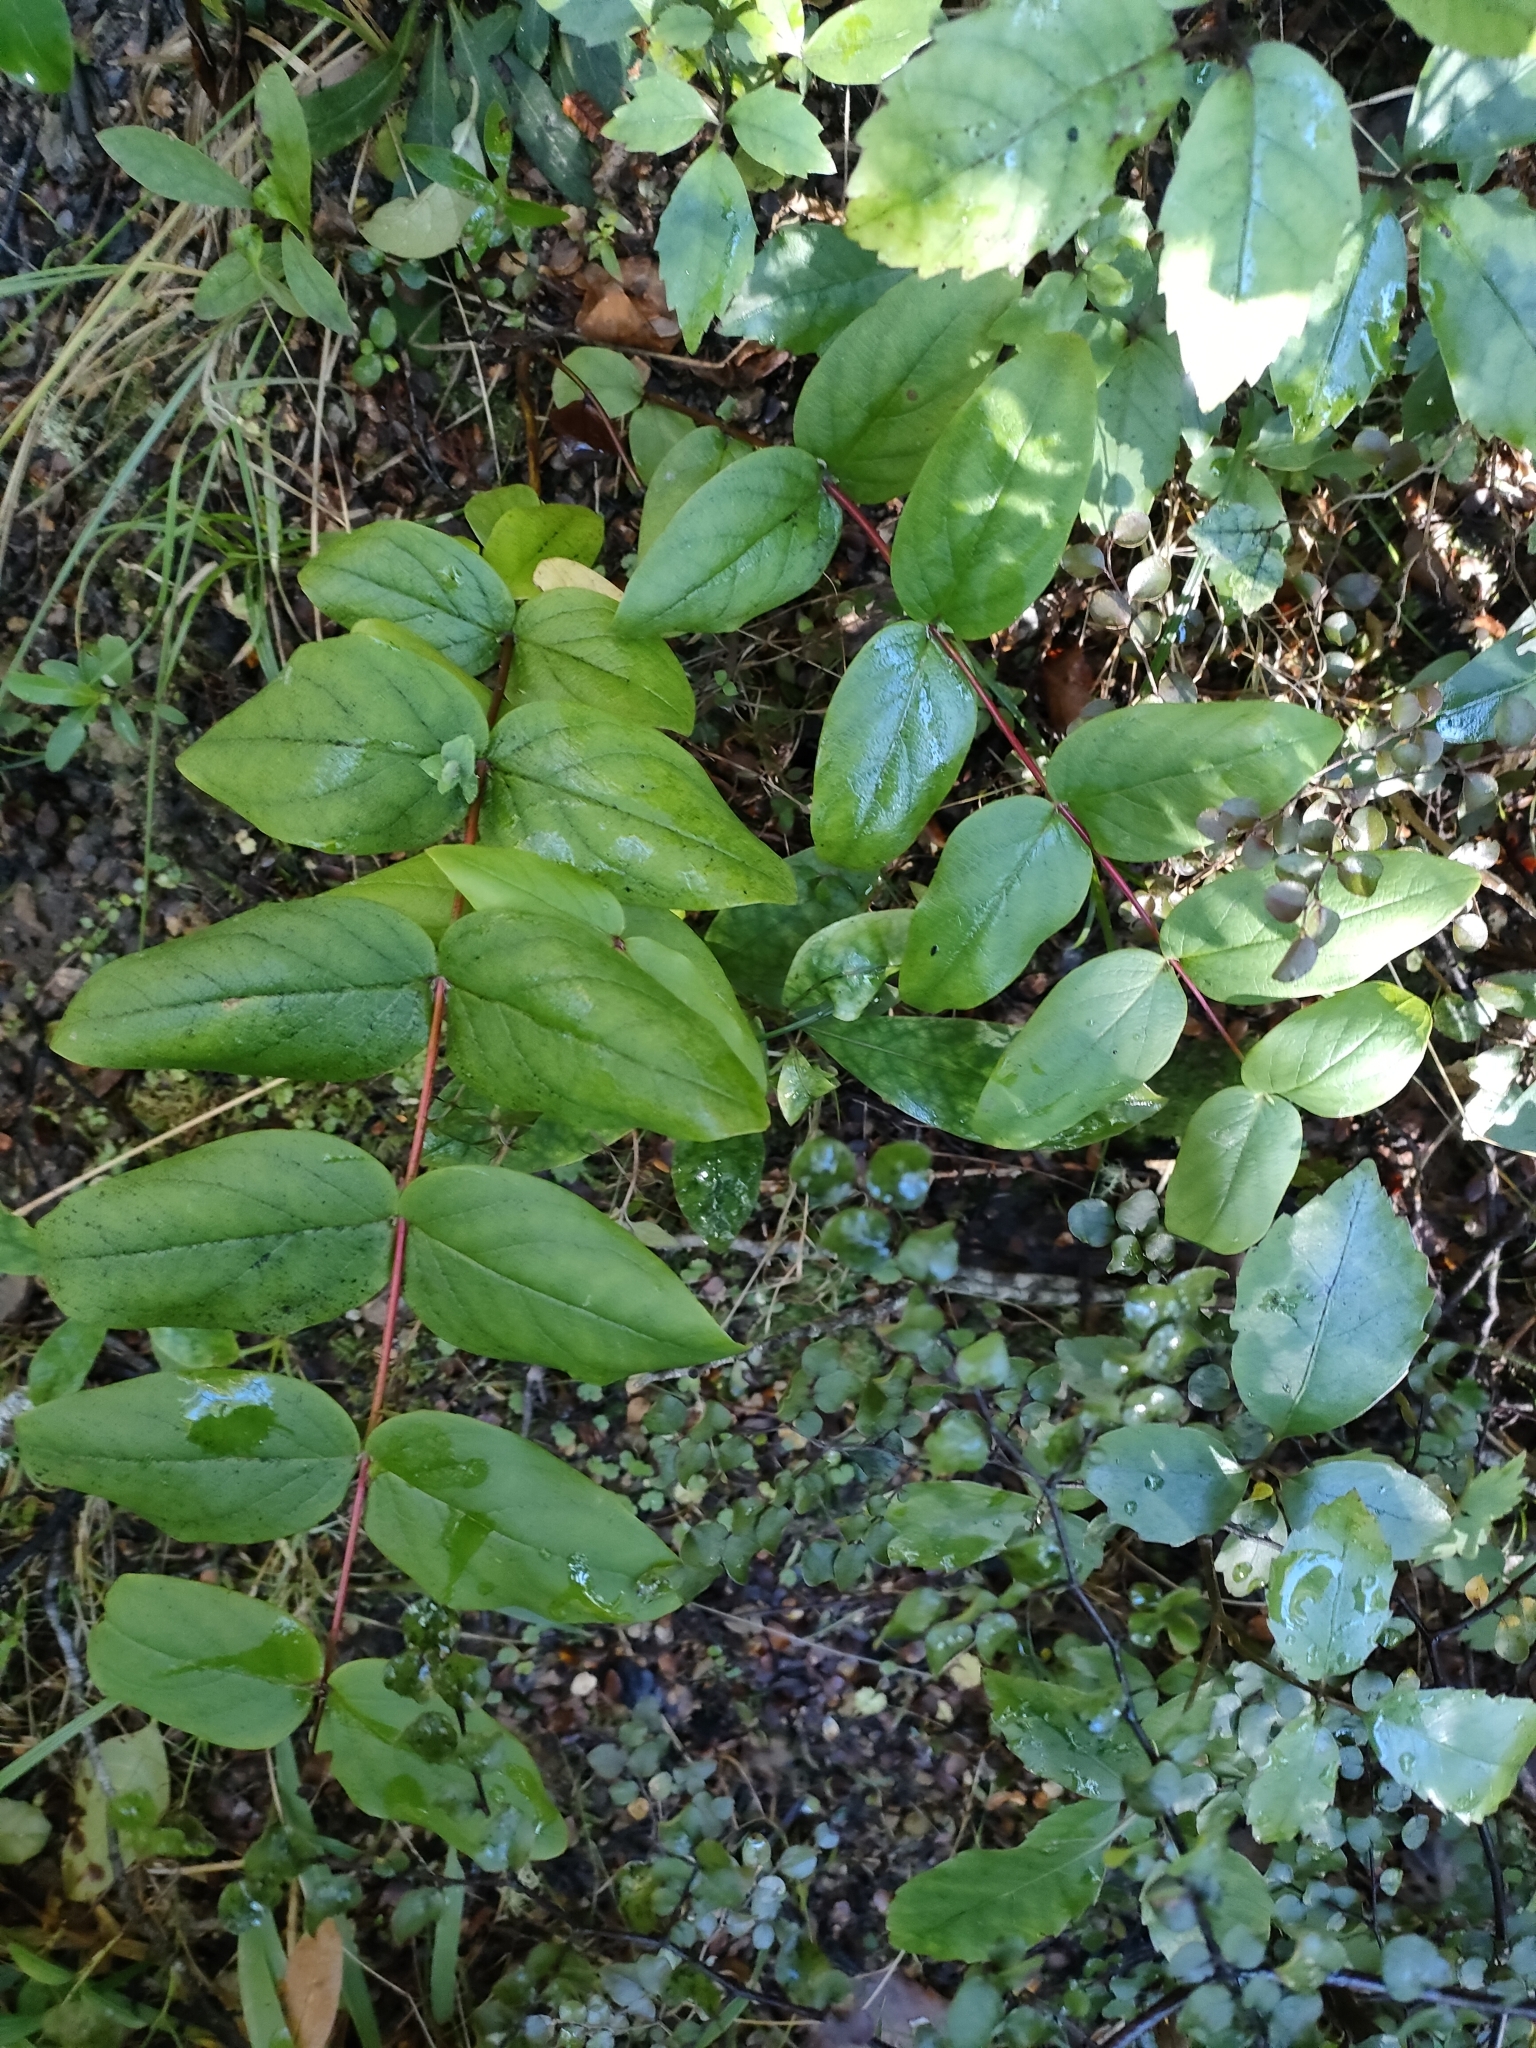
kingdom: Plantae
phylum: Tracheophyta
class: Magnoliopsida
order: Malpighiales
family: Hypericaceae
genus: Hypericum
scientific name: Hypericum androsaemum
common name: Sweet-amber
